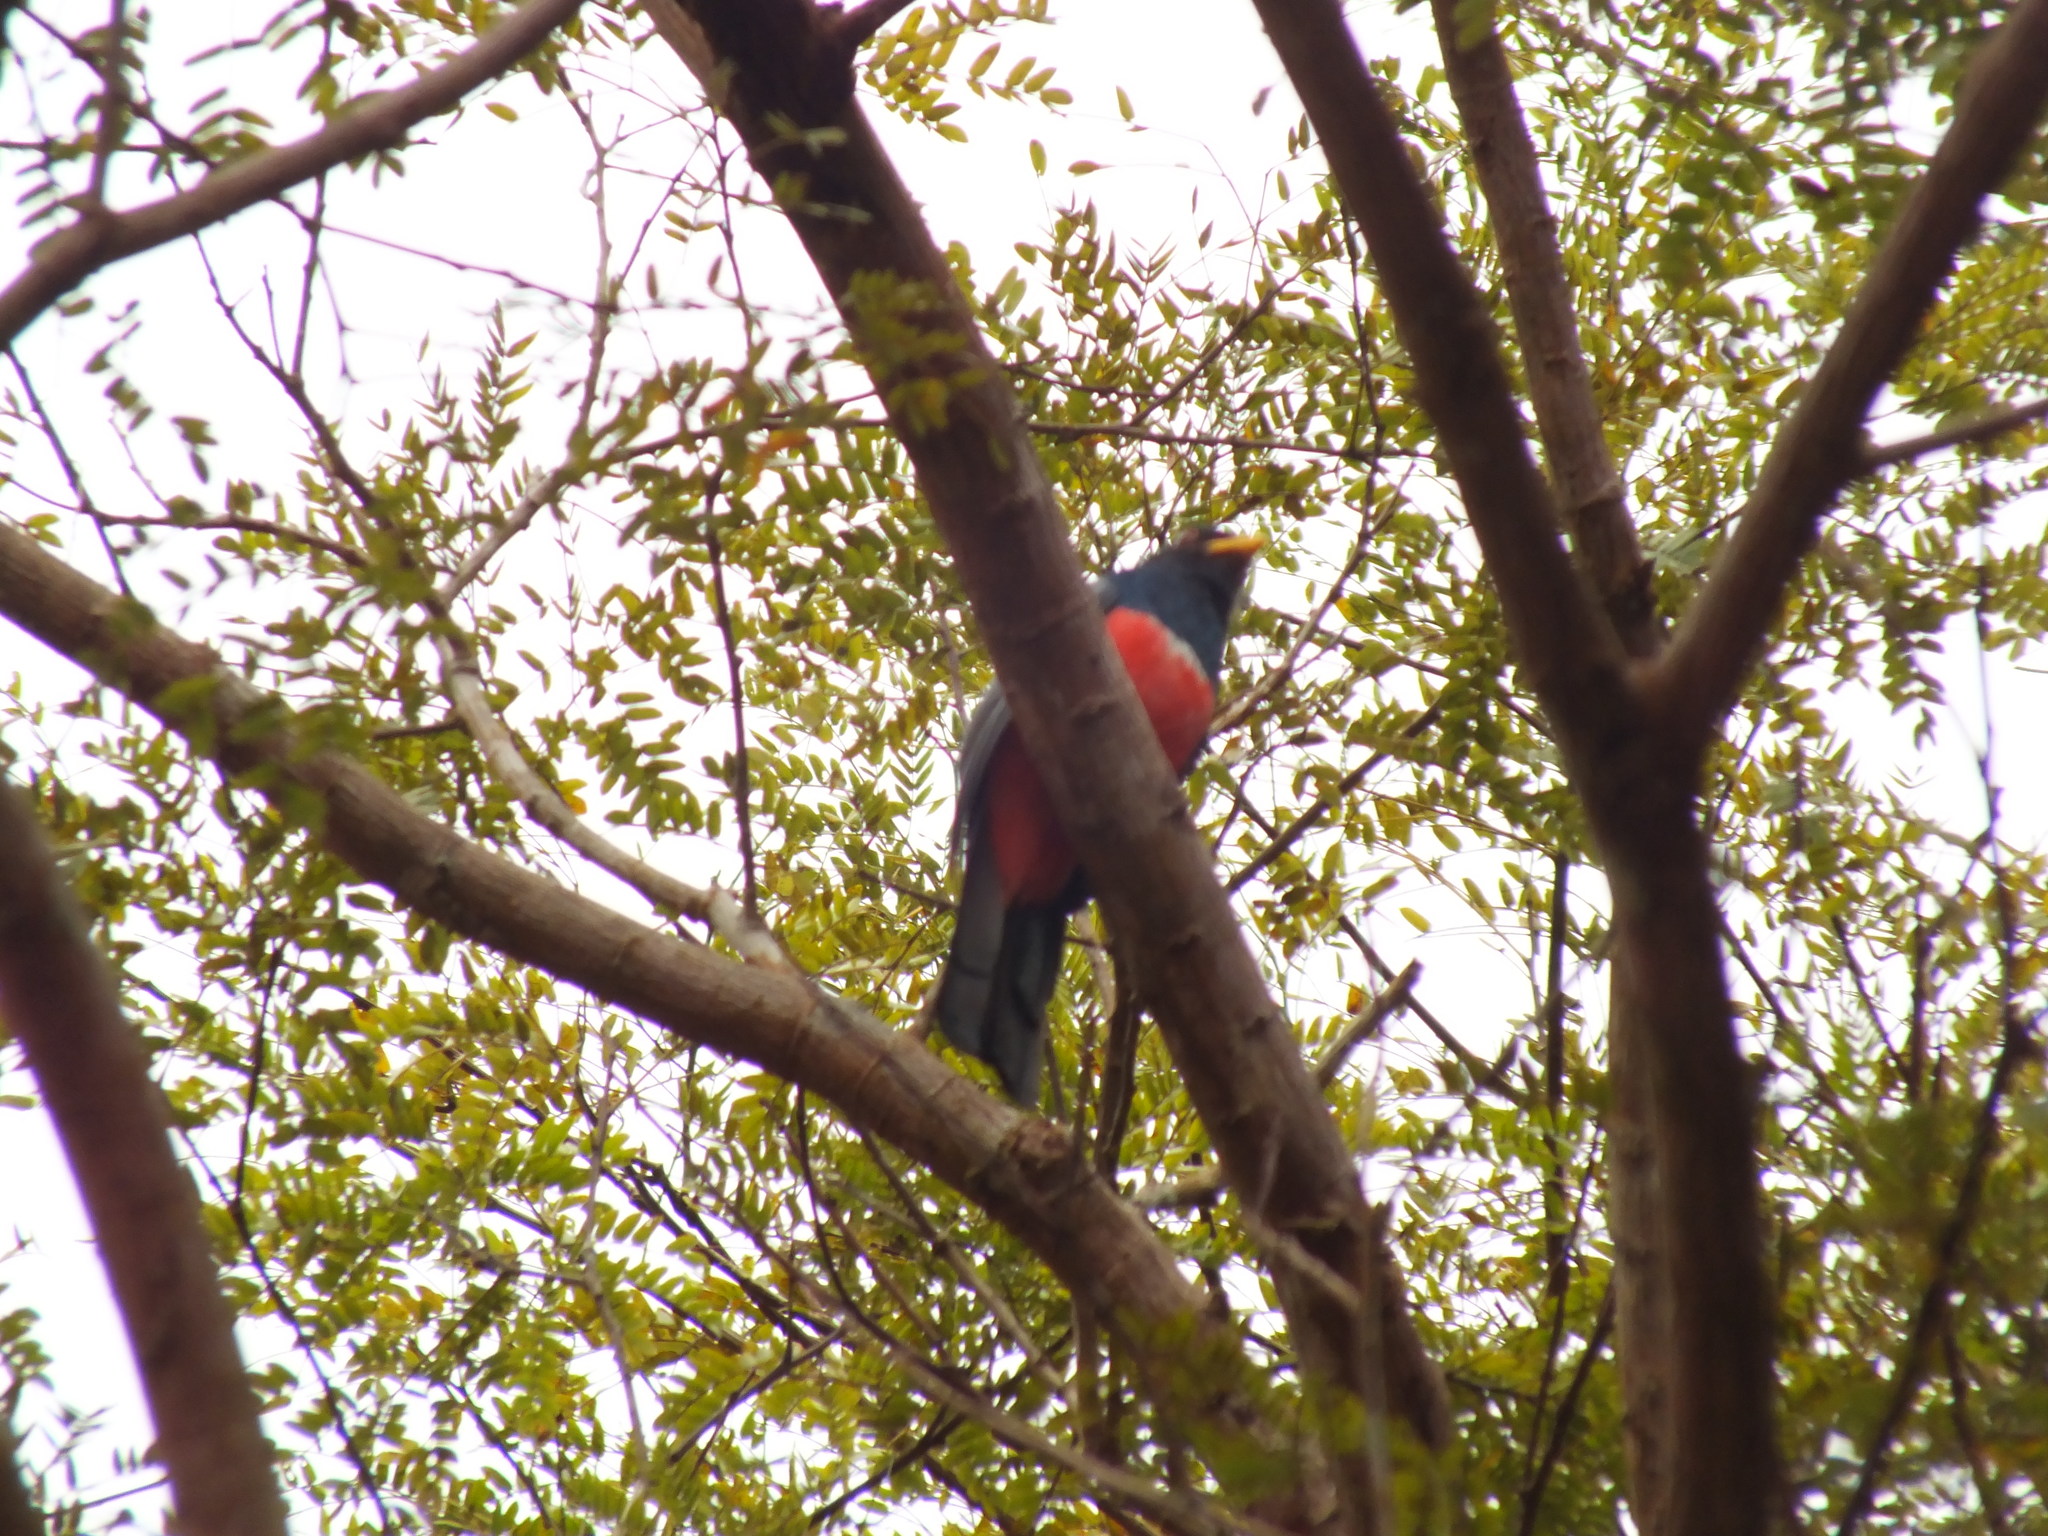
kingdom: Animalia
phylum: Chordata
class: Aves
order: Trogoniformes
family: Trogonidae
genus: Trogon
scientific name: Trogon melanurus
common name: Black-tailed trogon
